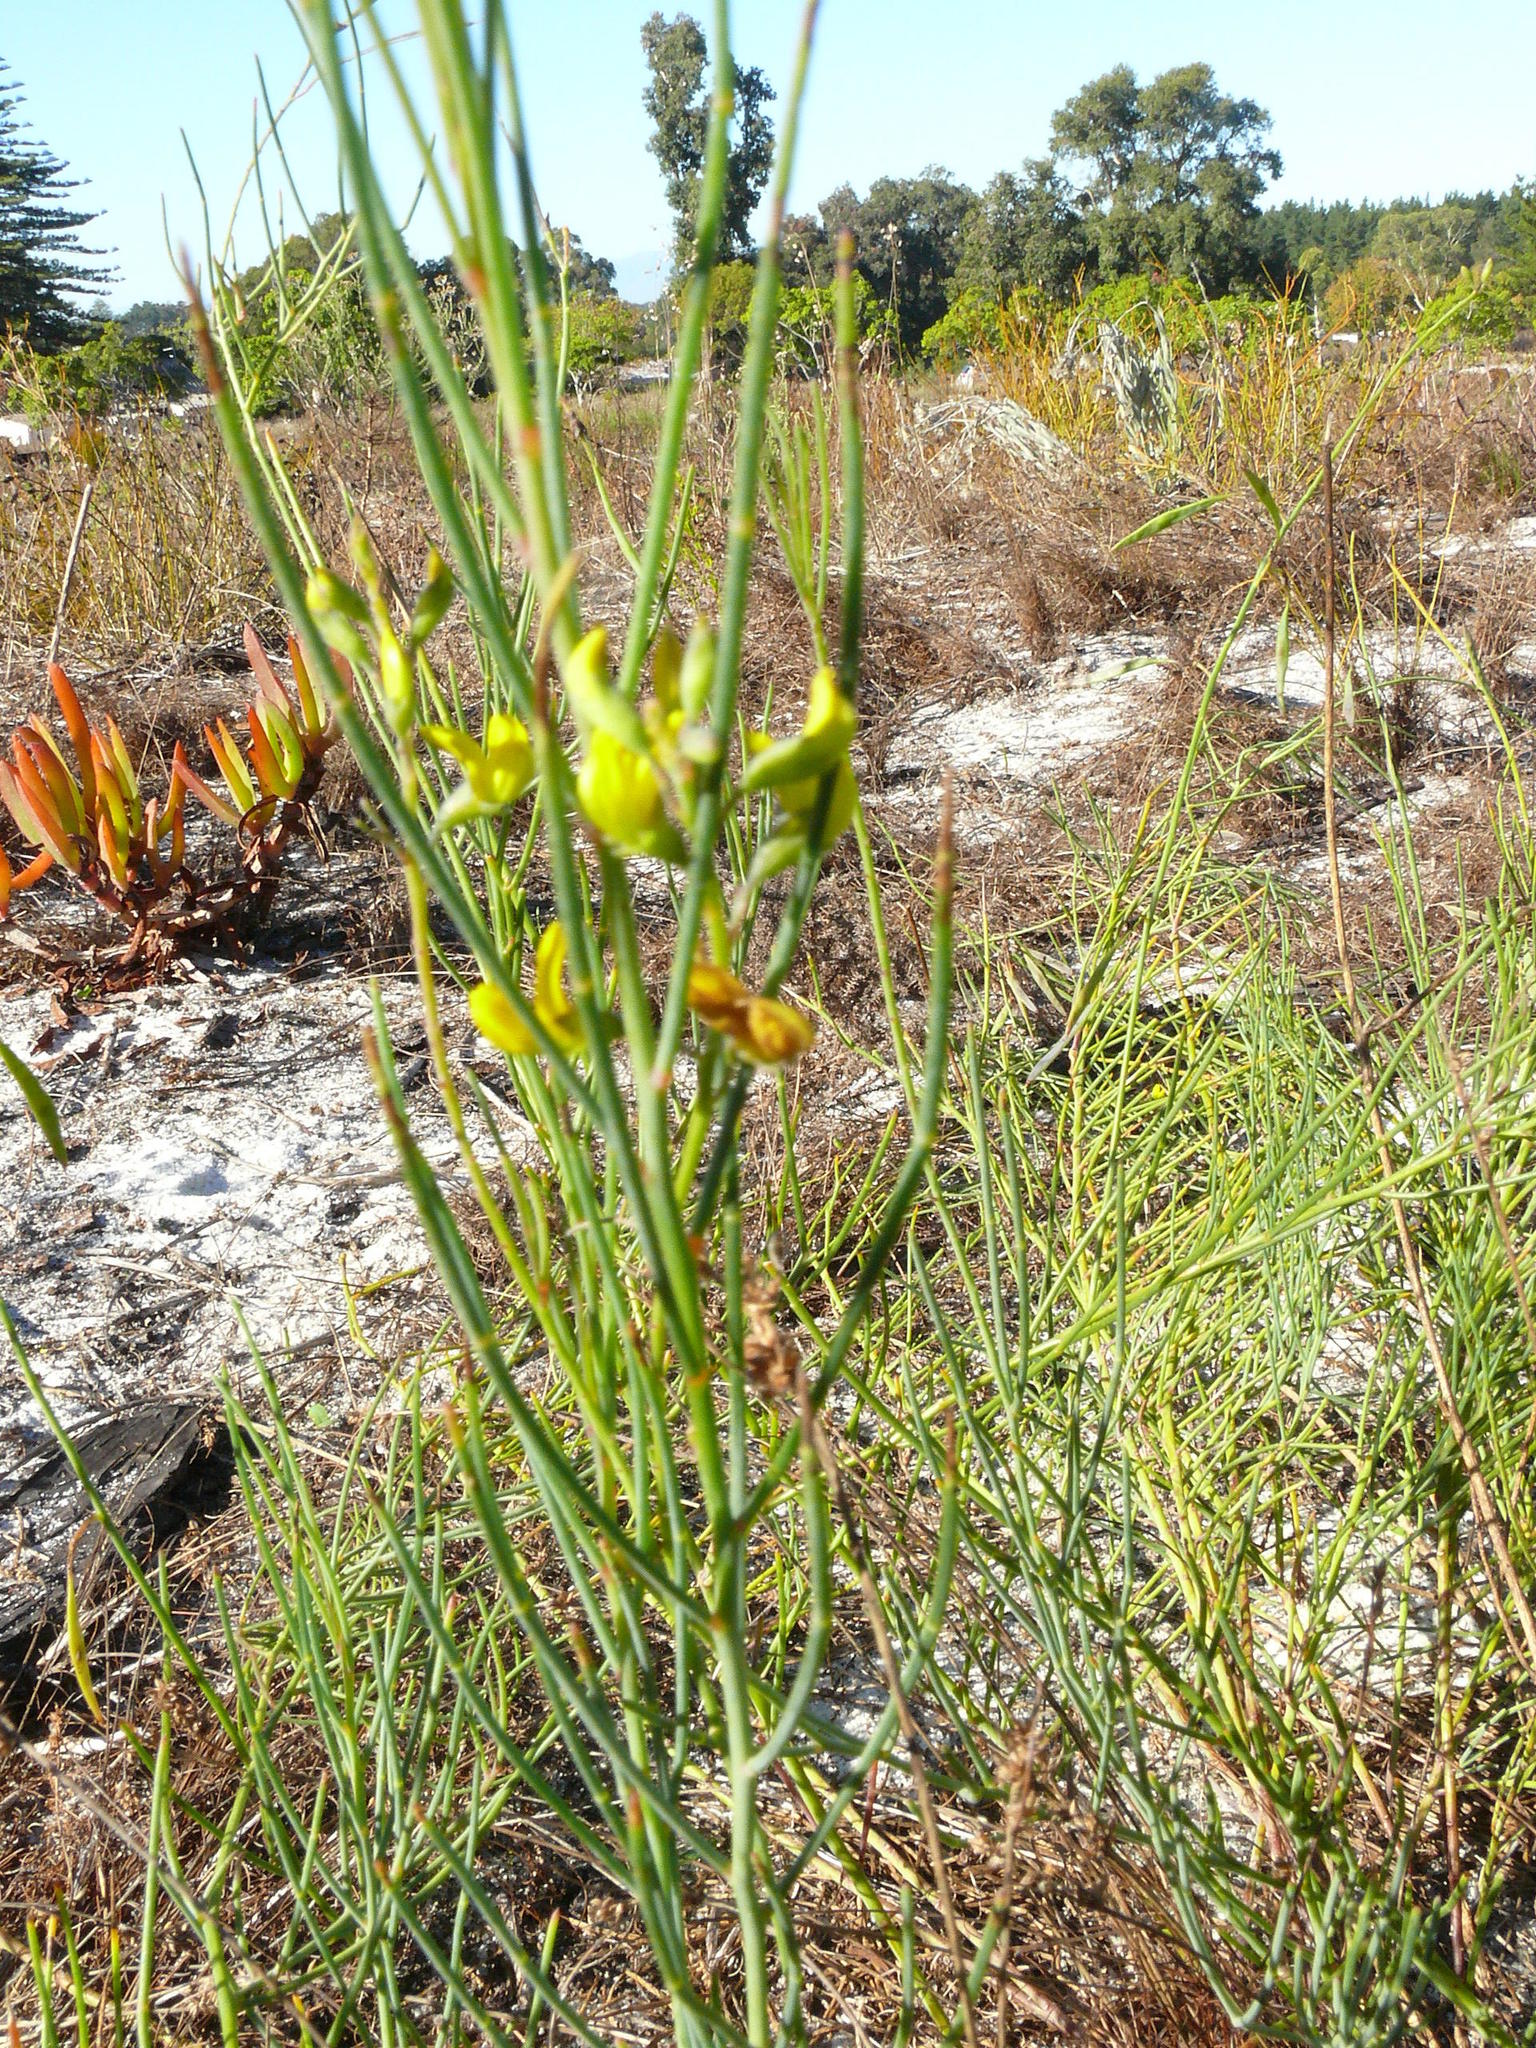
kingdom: Plantae
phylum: Tracheophyta
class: Magnoliopsida
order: Fabales
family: Fabaceae
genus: Lebeckia
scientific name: Lebeckia contaminata
